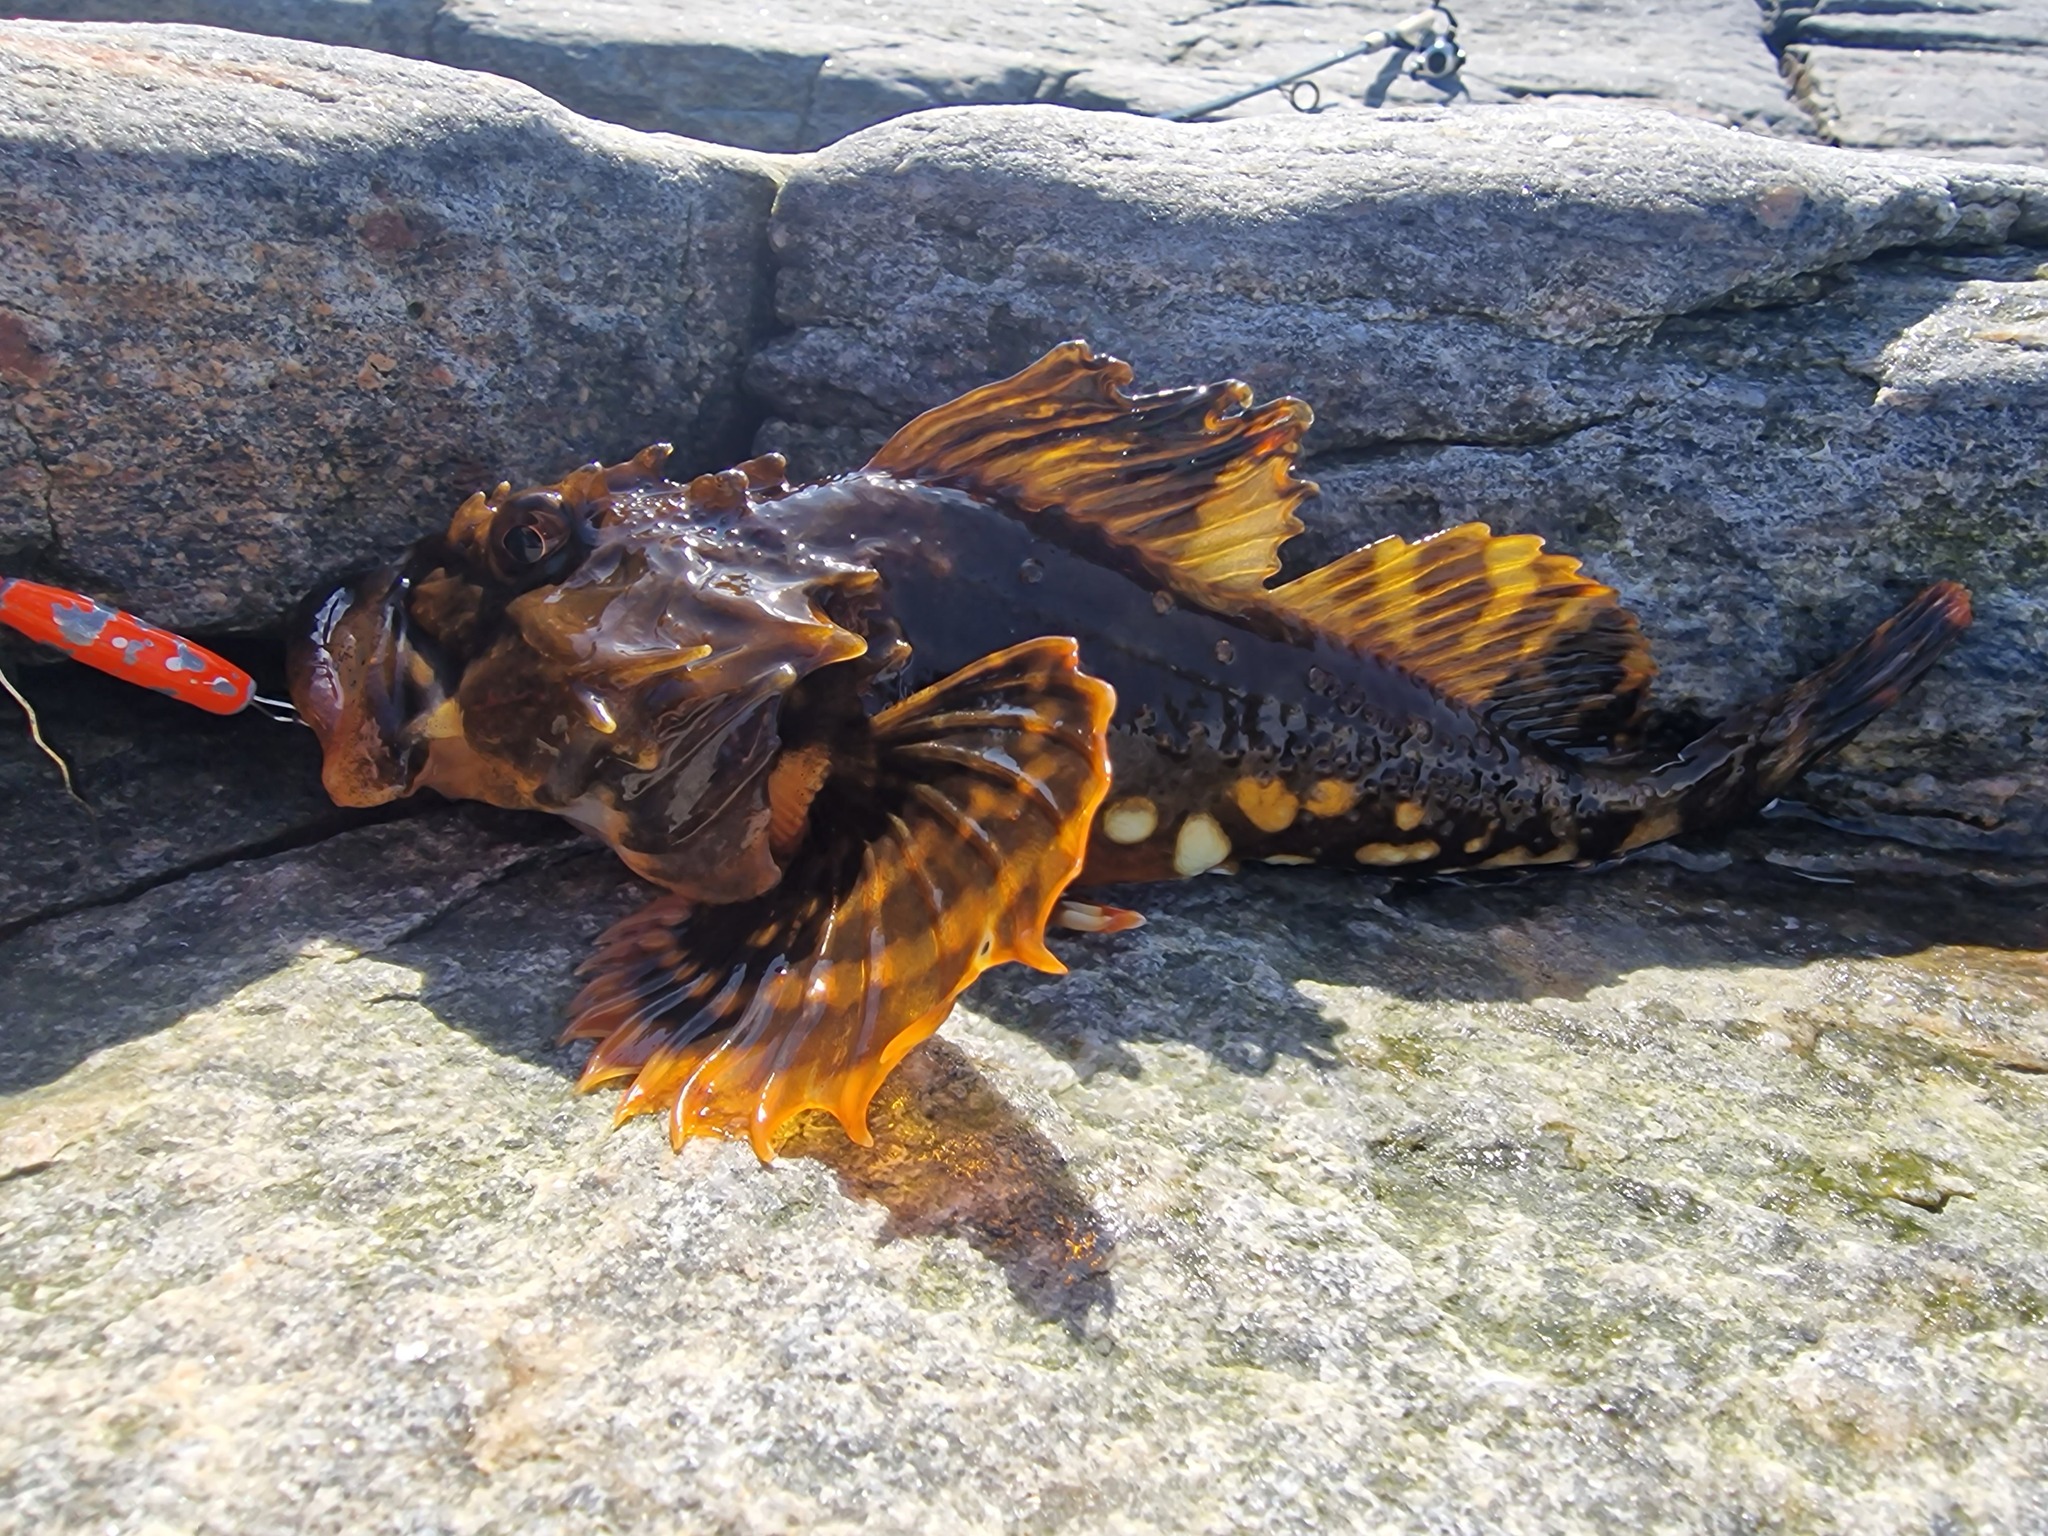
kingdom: Animalia
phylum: Chordata
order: Scorpaeniformes
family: Cottidae
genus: Myoxocephalus
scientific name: Myoxocephalus scorpius
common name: Shorthorn sculpin
